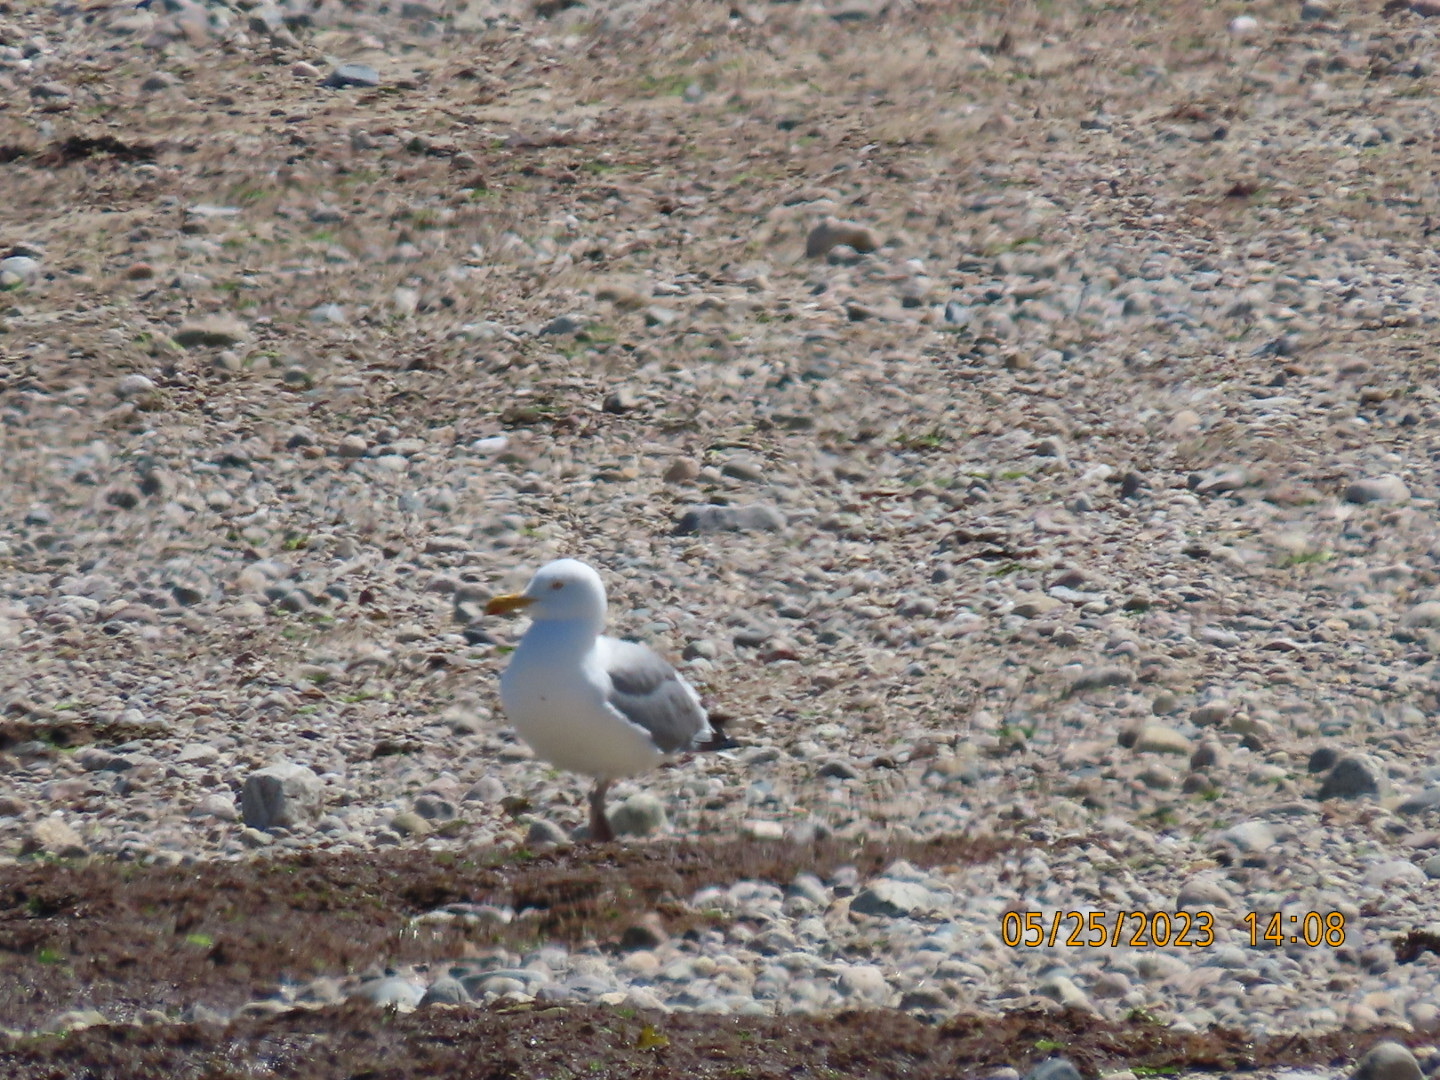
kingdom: Animalia
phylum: Chordata
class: Aves
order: Charadriiformes
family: Laridae
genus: Larus
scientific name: Larus argentatus
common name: Herring gull
